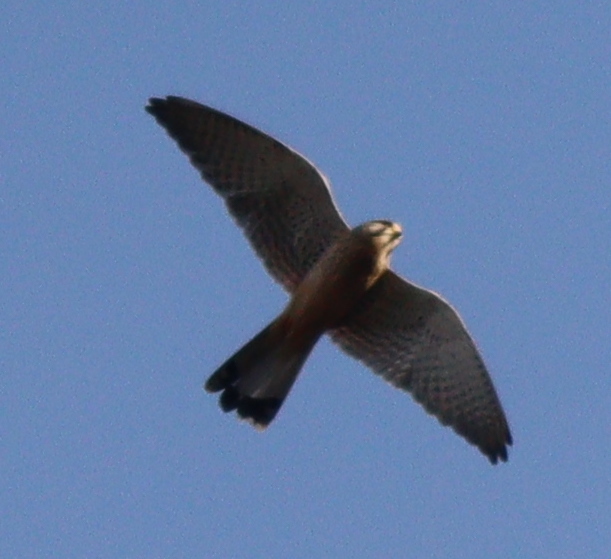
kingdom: Animalia
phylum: Chordata
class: Aves
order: Falconiformes
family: Falconidae
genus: Falco
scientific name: Falco tinnunculus
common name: Common kestrel
